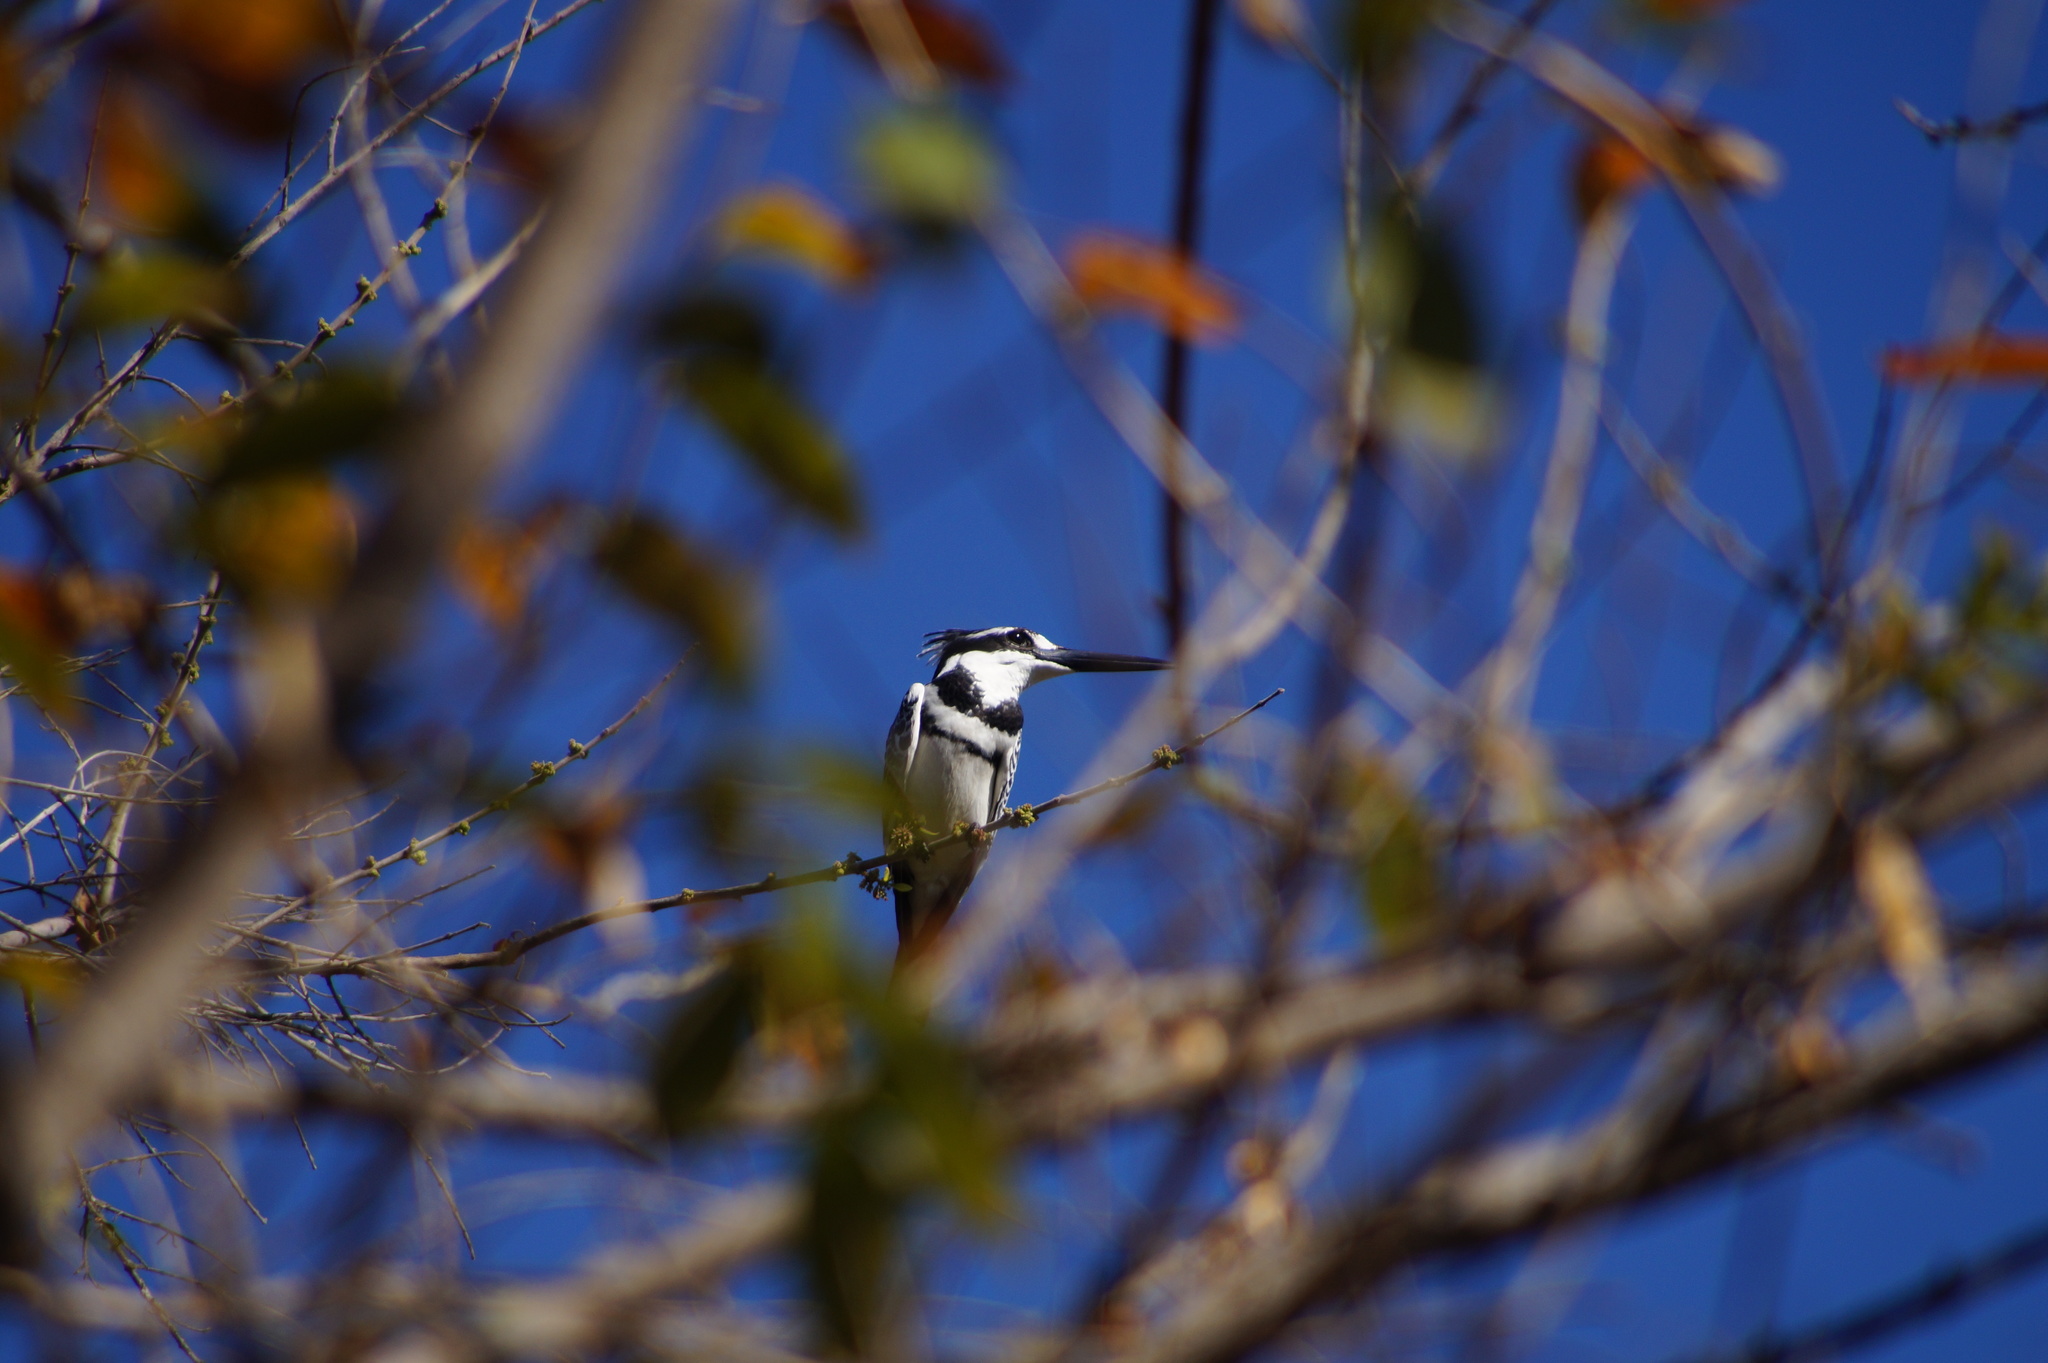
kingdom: Animalia
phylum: Chordata
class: Aves
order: Coraciiformes
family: Alcedinidae
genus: Ceryle
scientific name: Ceryle rudis
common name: Pied kingfisher
